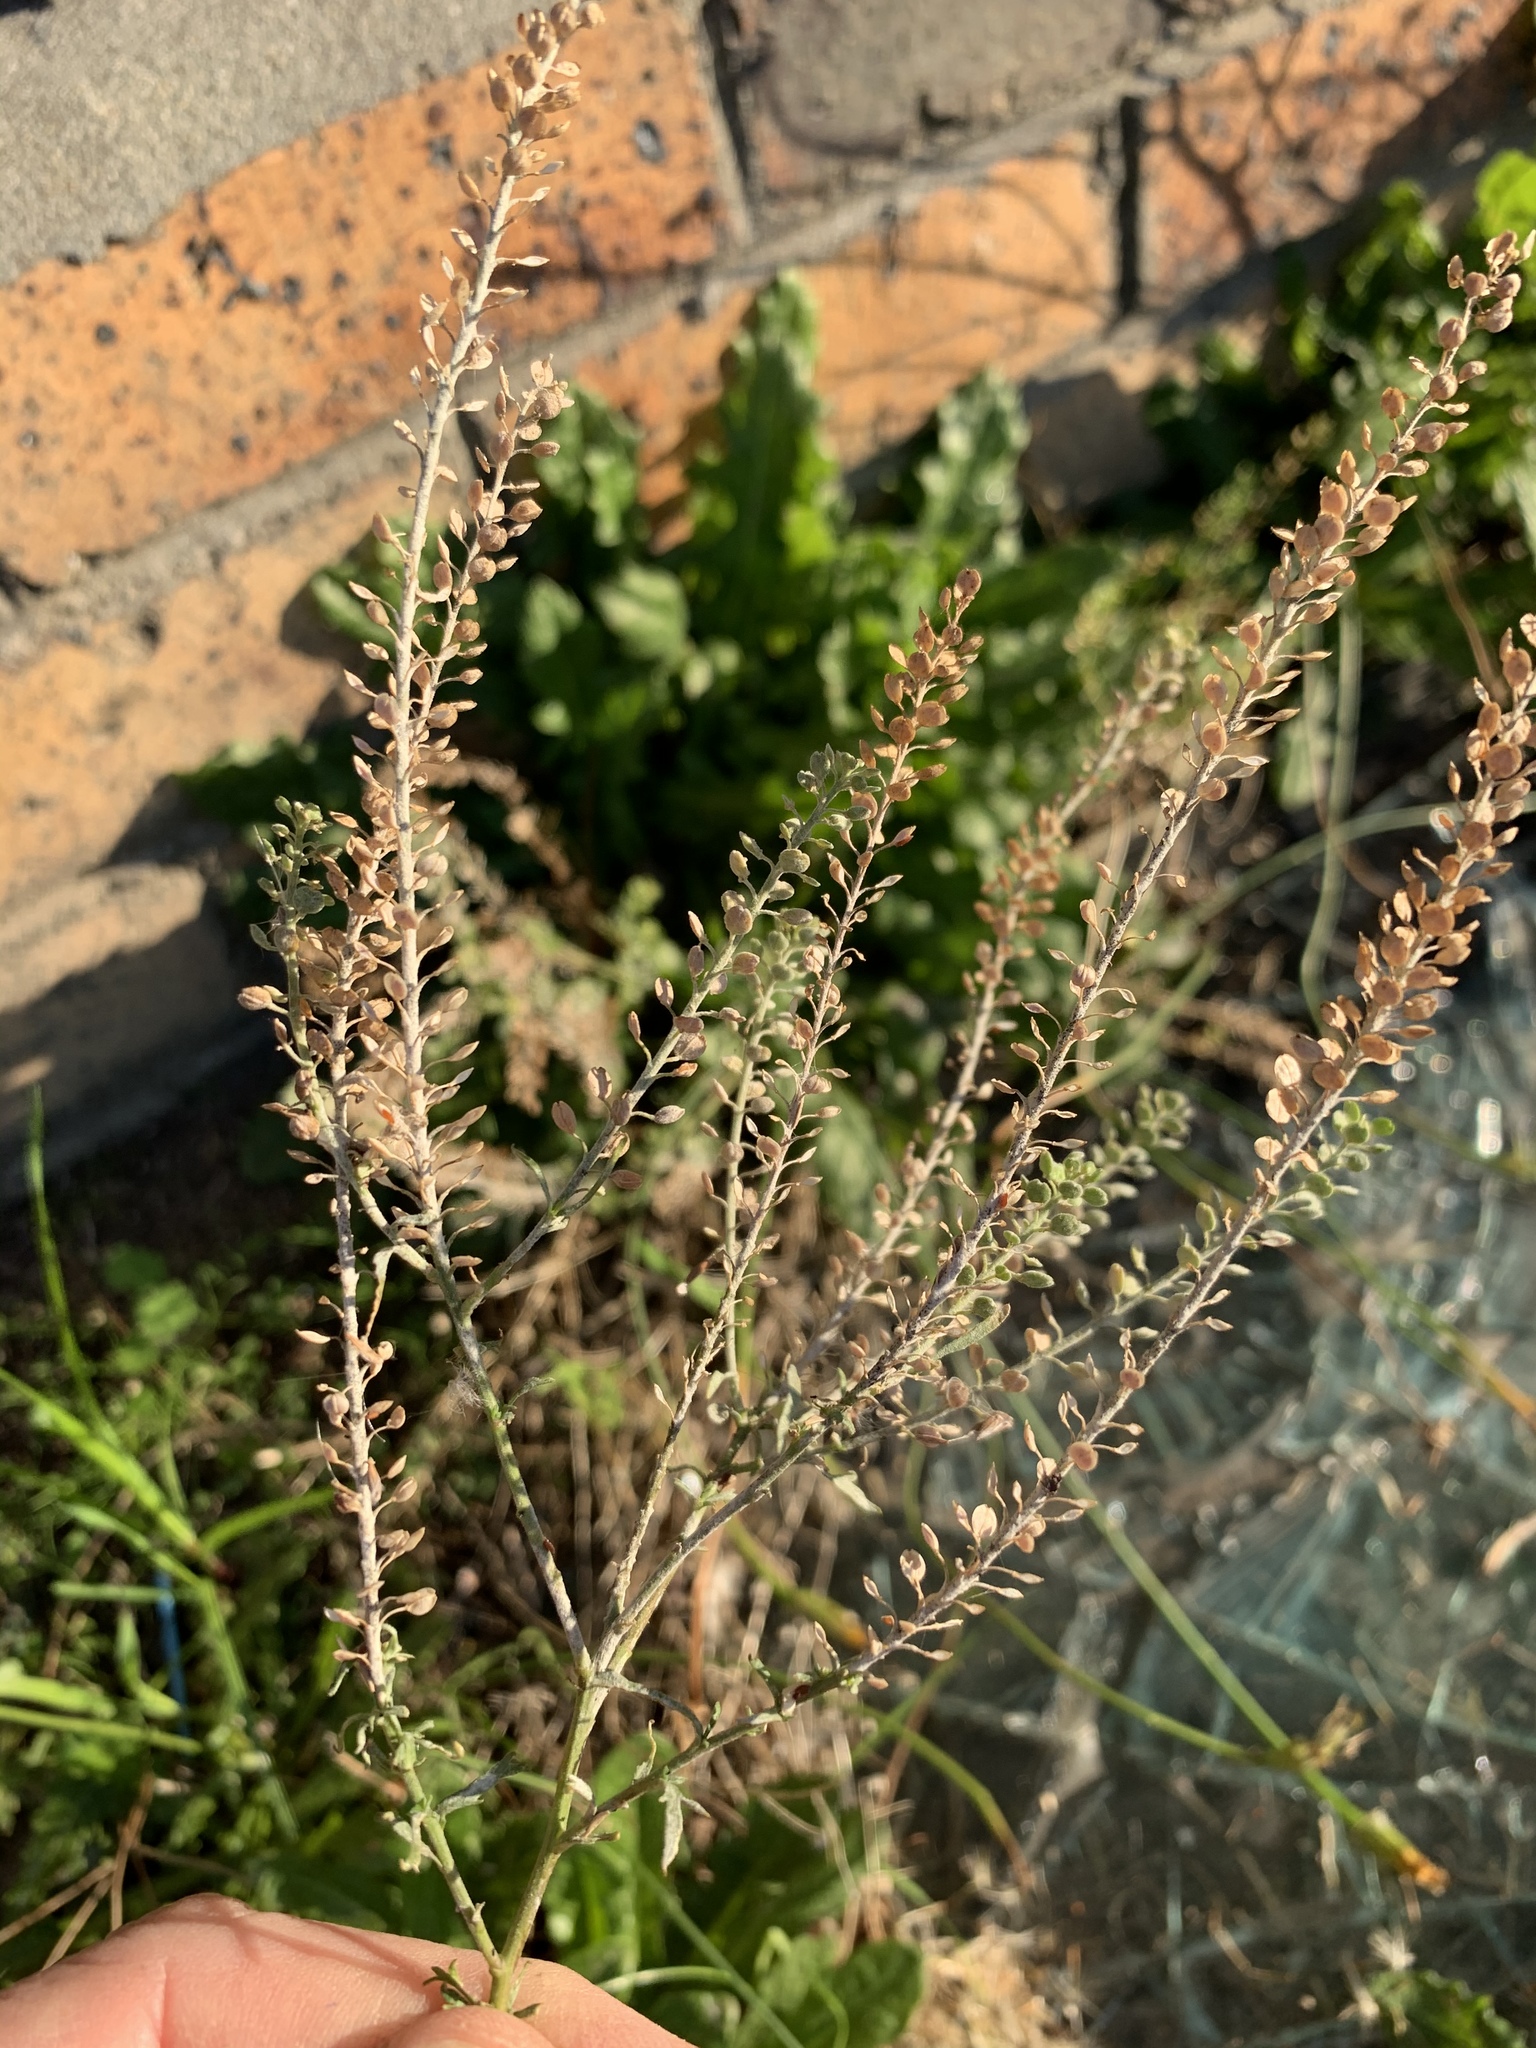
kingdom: Plantae
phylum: Tracheophyta
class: Magnoliopsida
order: Brassicales
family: Brassicaceae
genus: Lepidium
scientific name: Lepidium bonariense
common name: Argentine pepperwort
